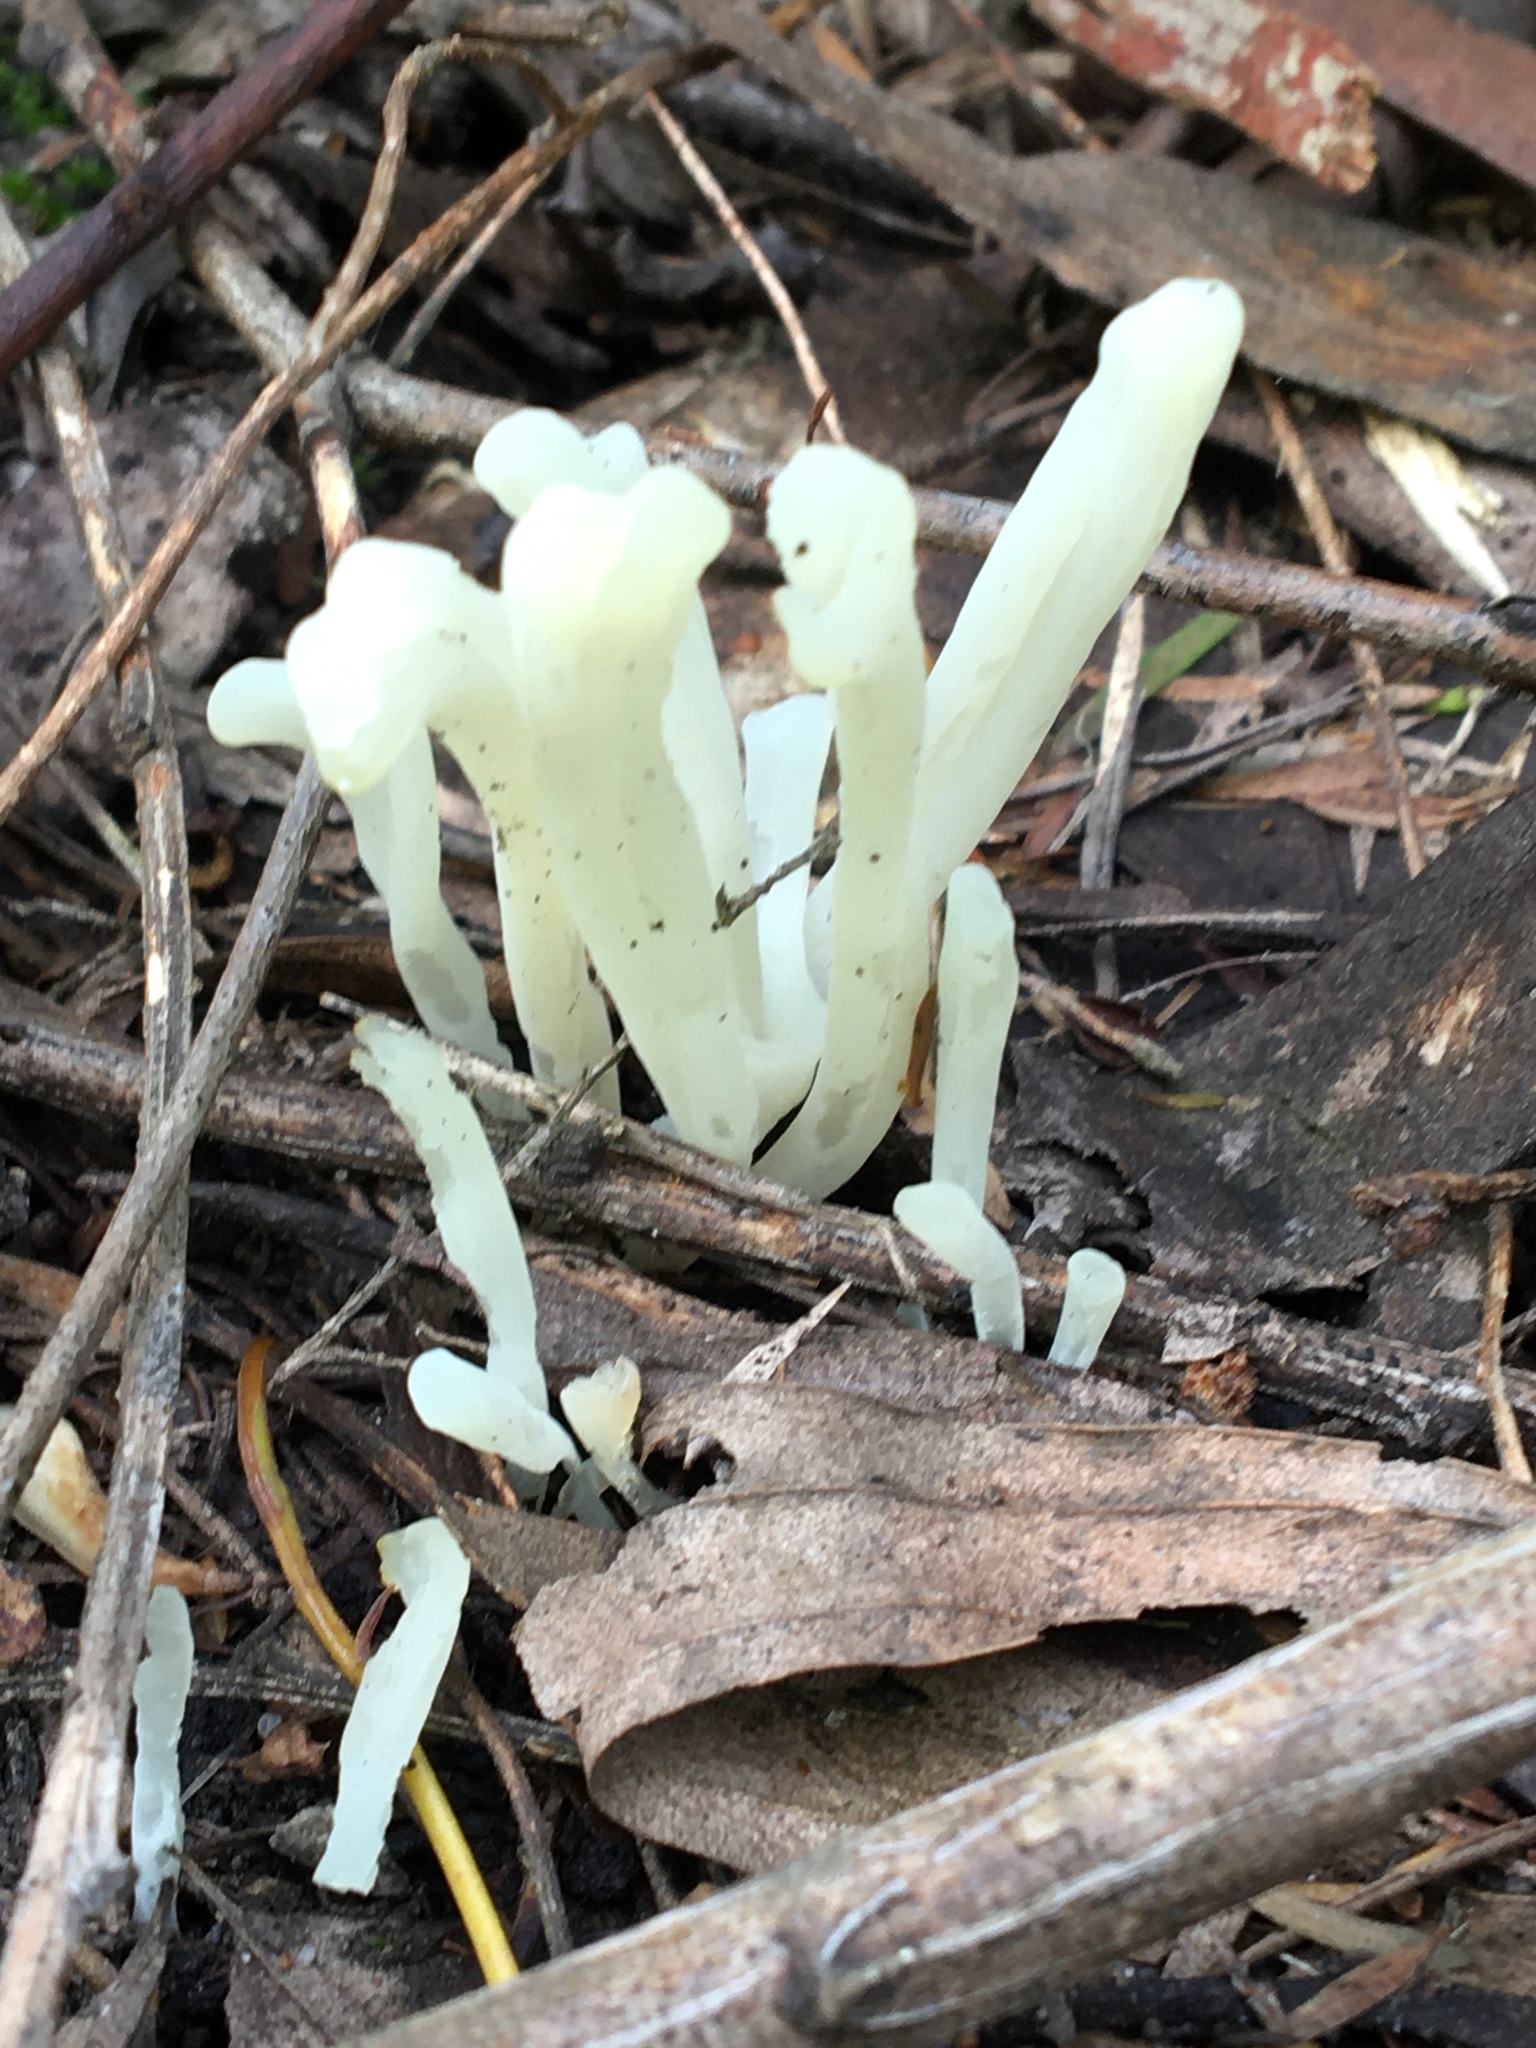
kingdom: Fungi
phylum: Basidiomycota
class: Agaricomycetes
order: Agaricales
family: Clavariaceae
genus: Clavaria
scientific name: Clavaria fragilis
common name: White spindles
